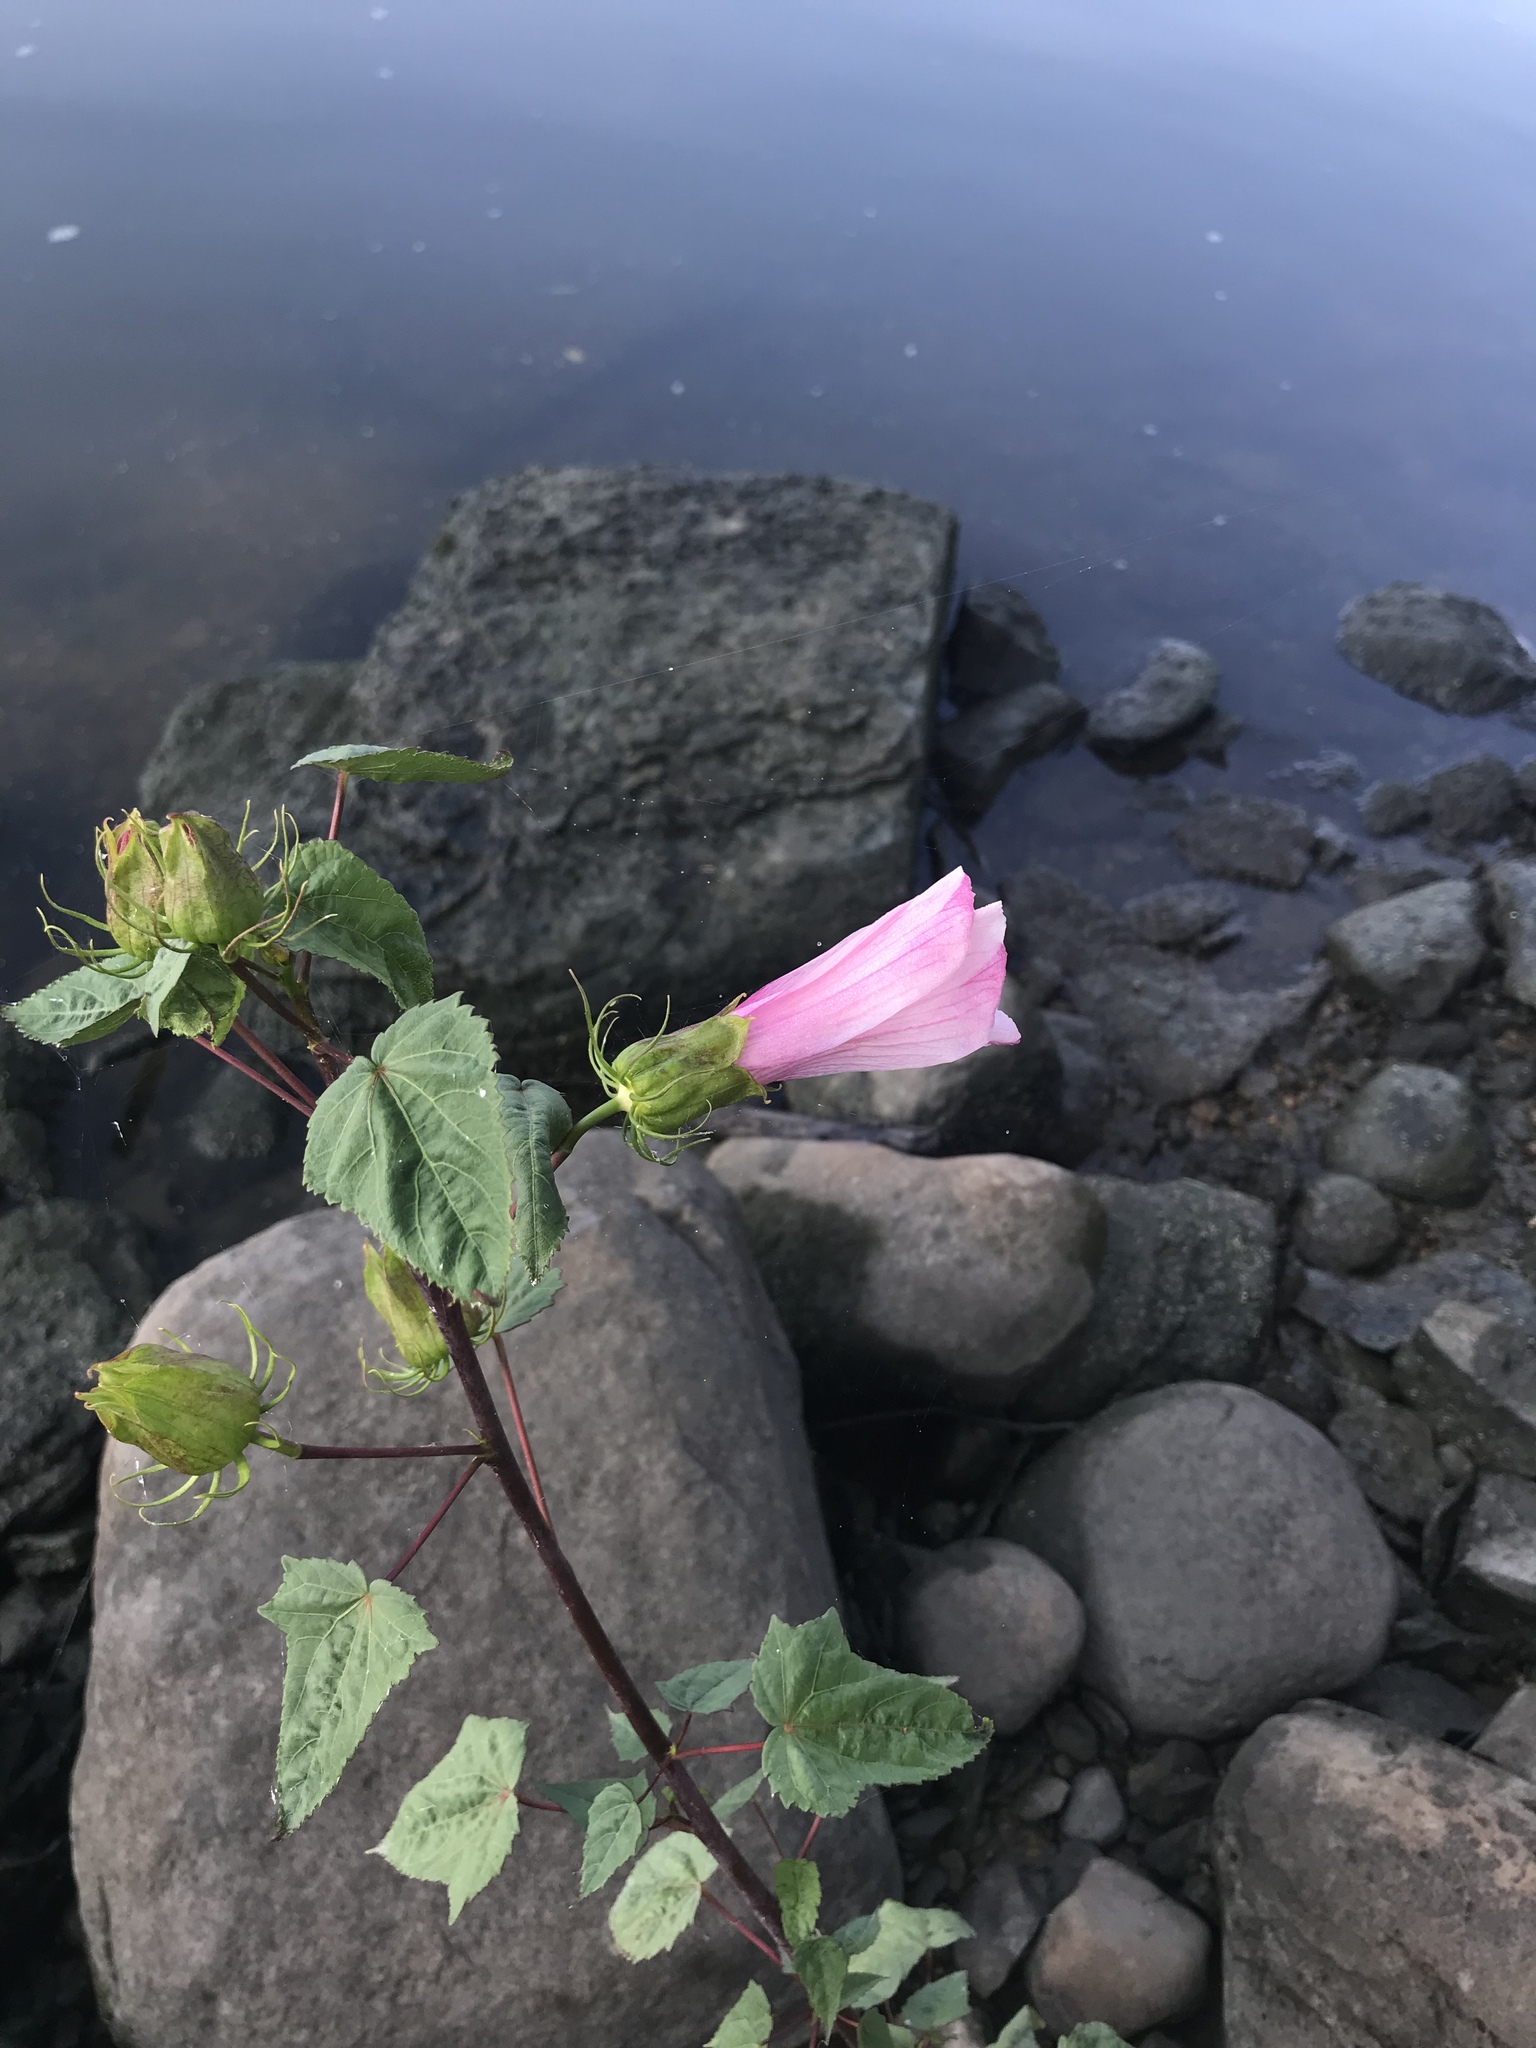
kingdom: Plantae
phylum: Tracheophyta
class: Magnoliopsida
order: Malvales
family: Malvaceae
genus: Hibiscus
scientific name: Hibiscus laevis
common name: Scarlet rose-mallow
